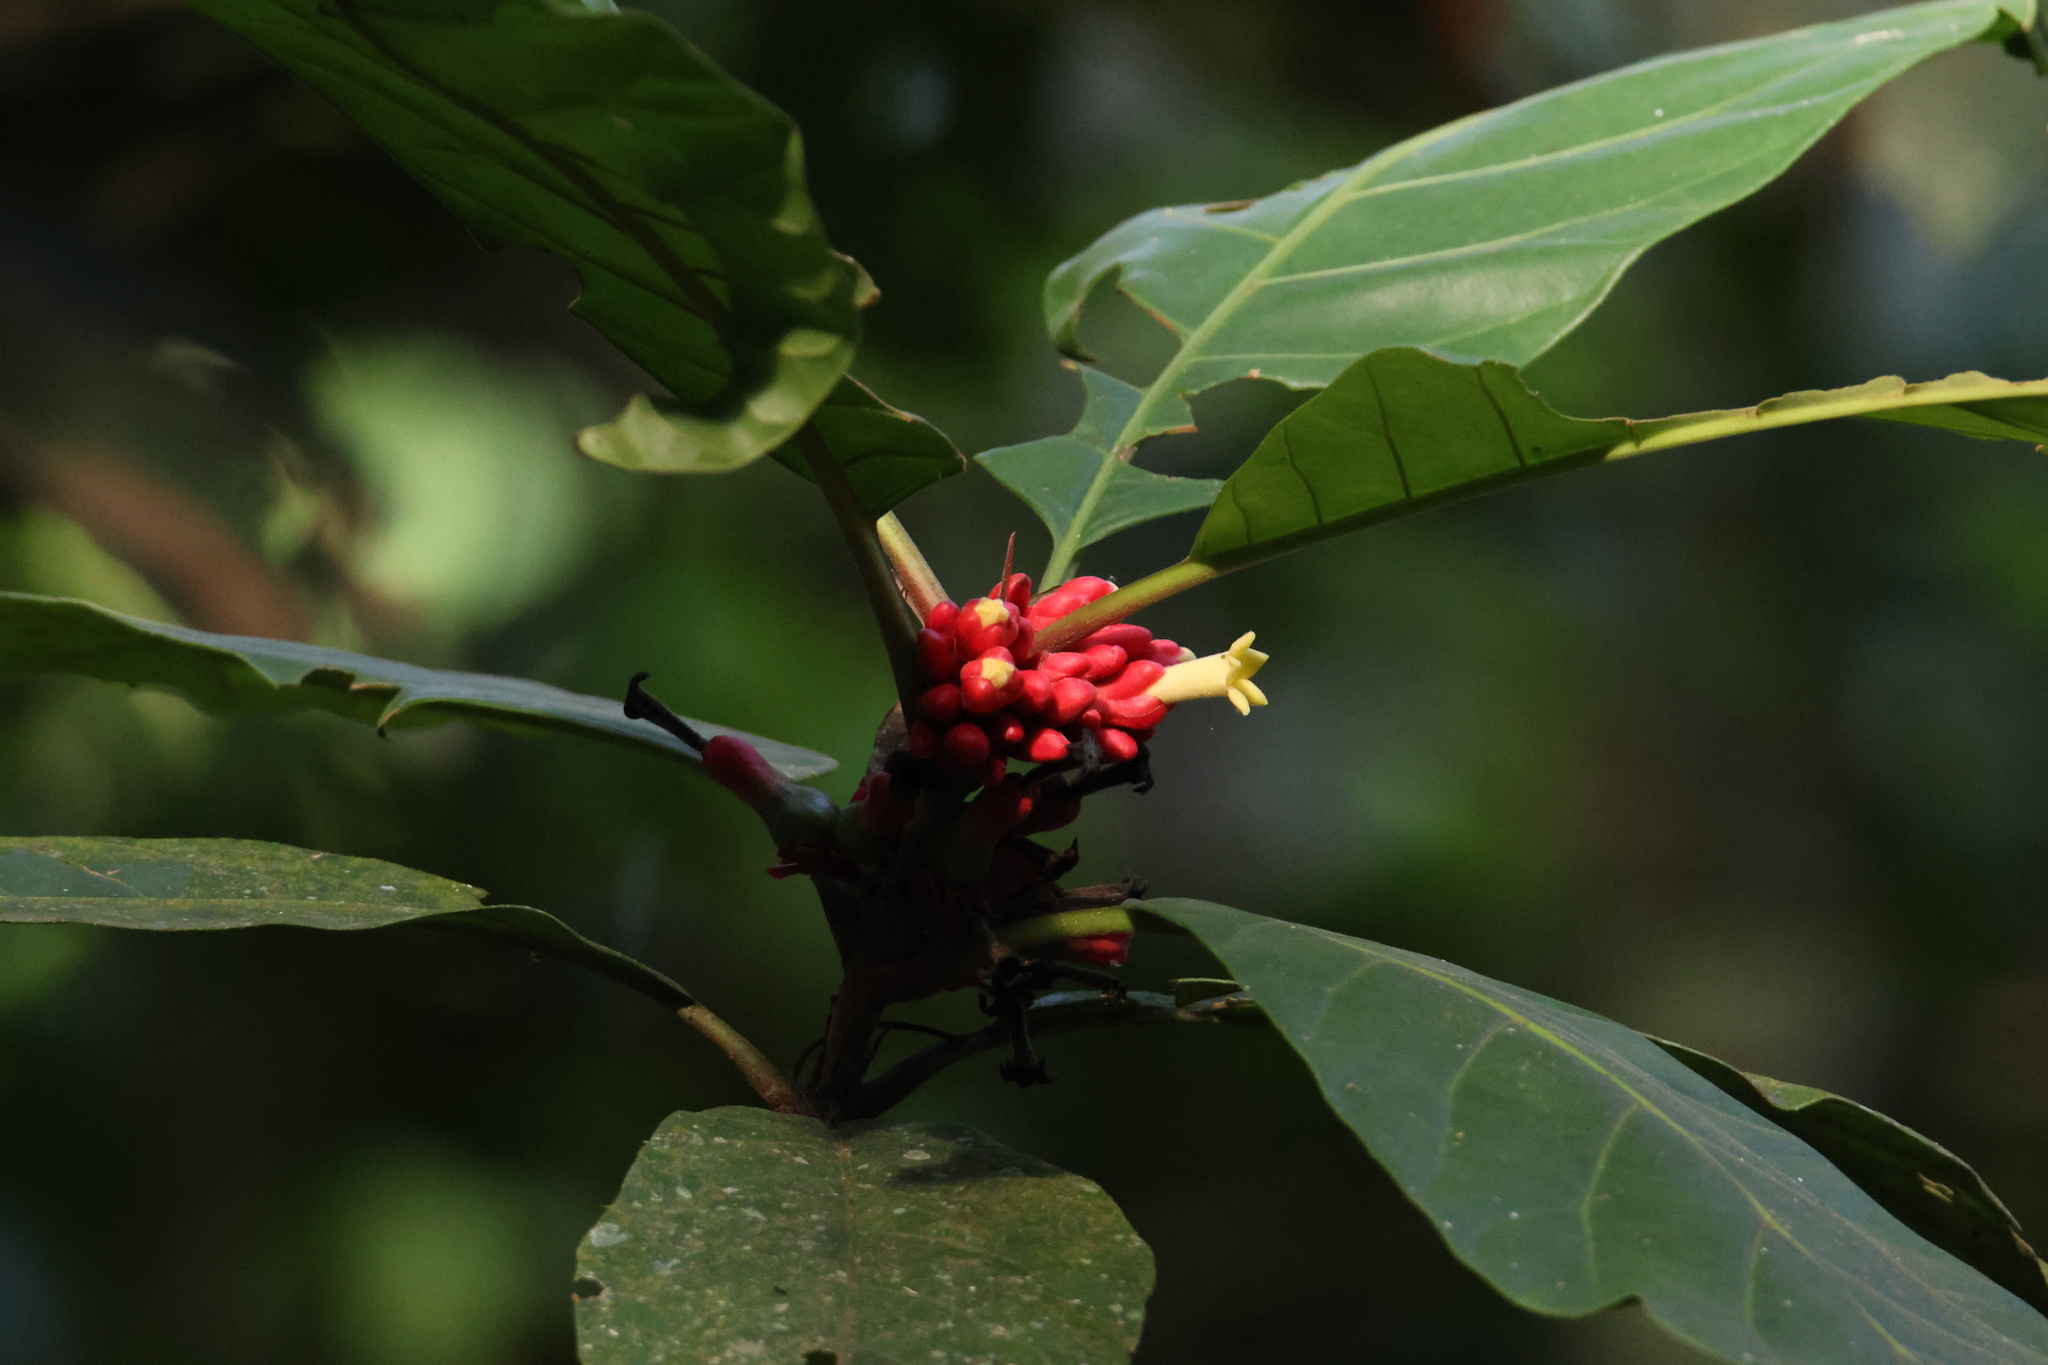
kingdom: Plantae
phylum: Tracheophyta
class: Magnoliopsida
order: Gentianales
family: Rubiaceae
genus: Pentagonia
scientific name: Pentagonia macrophylla
